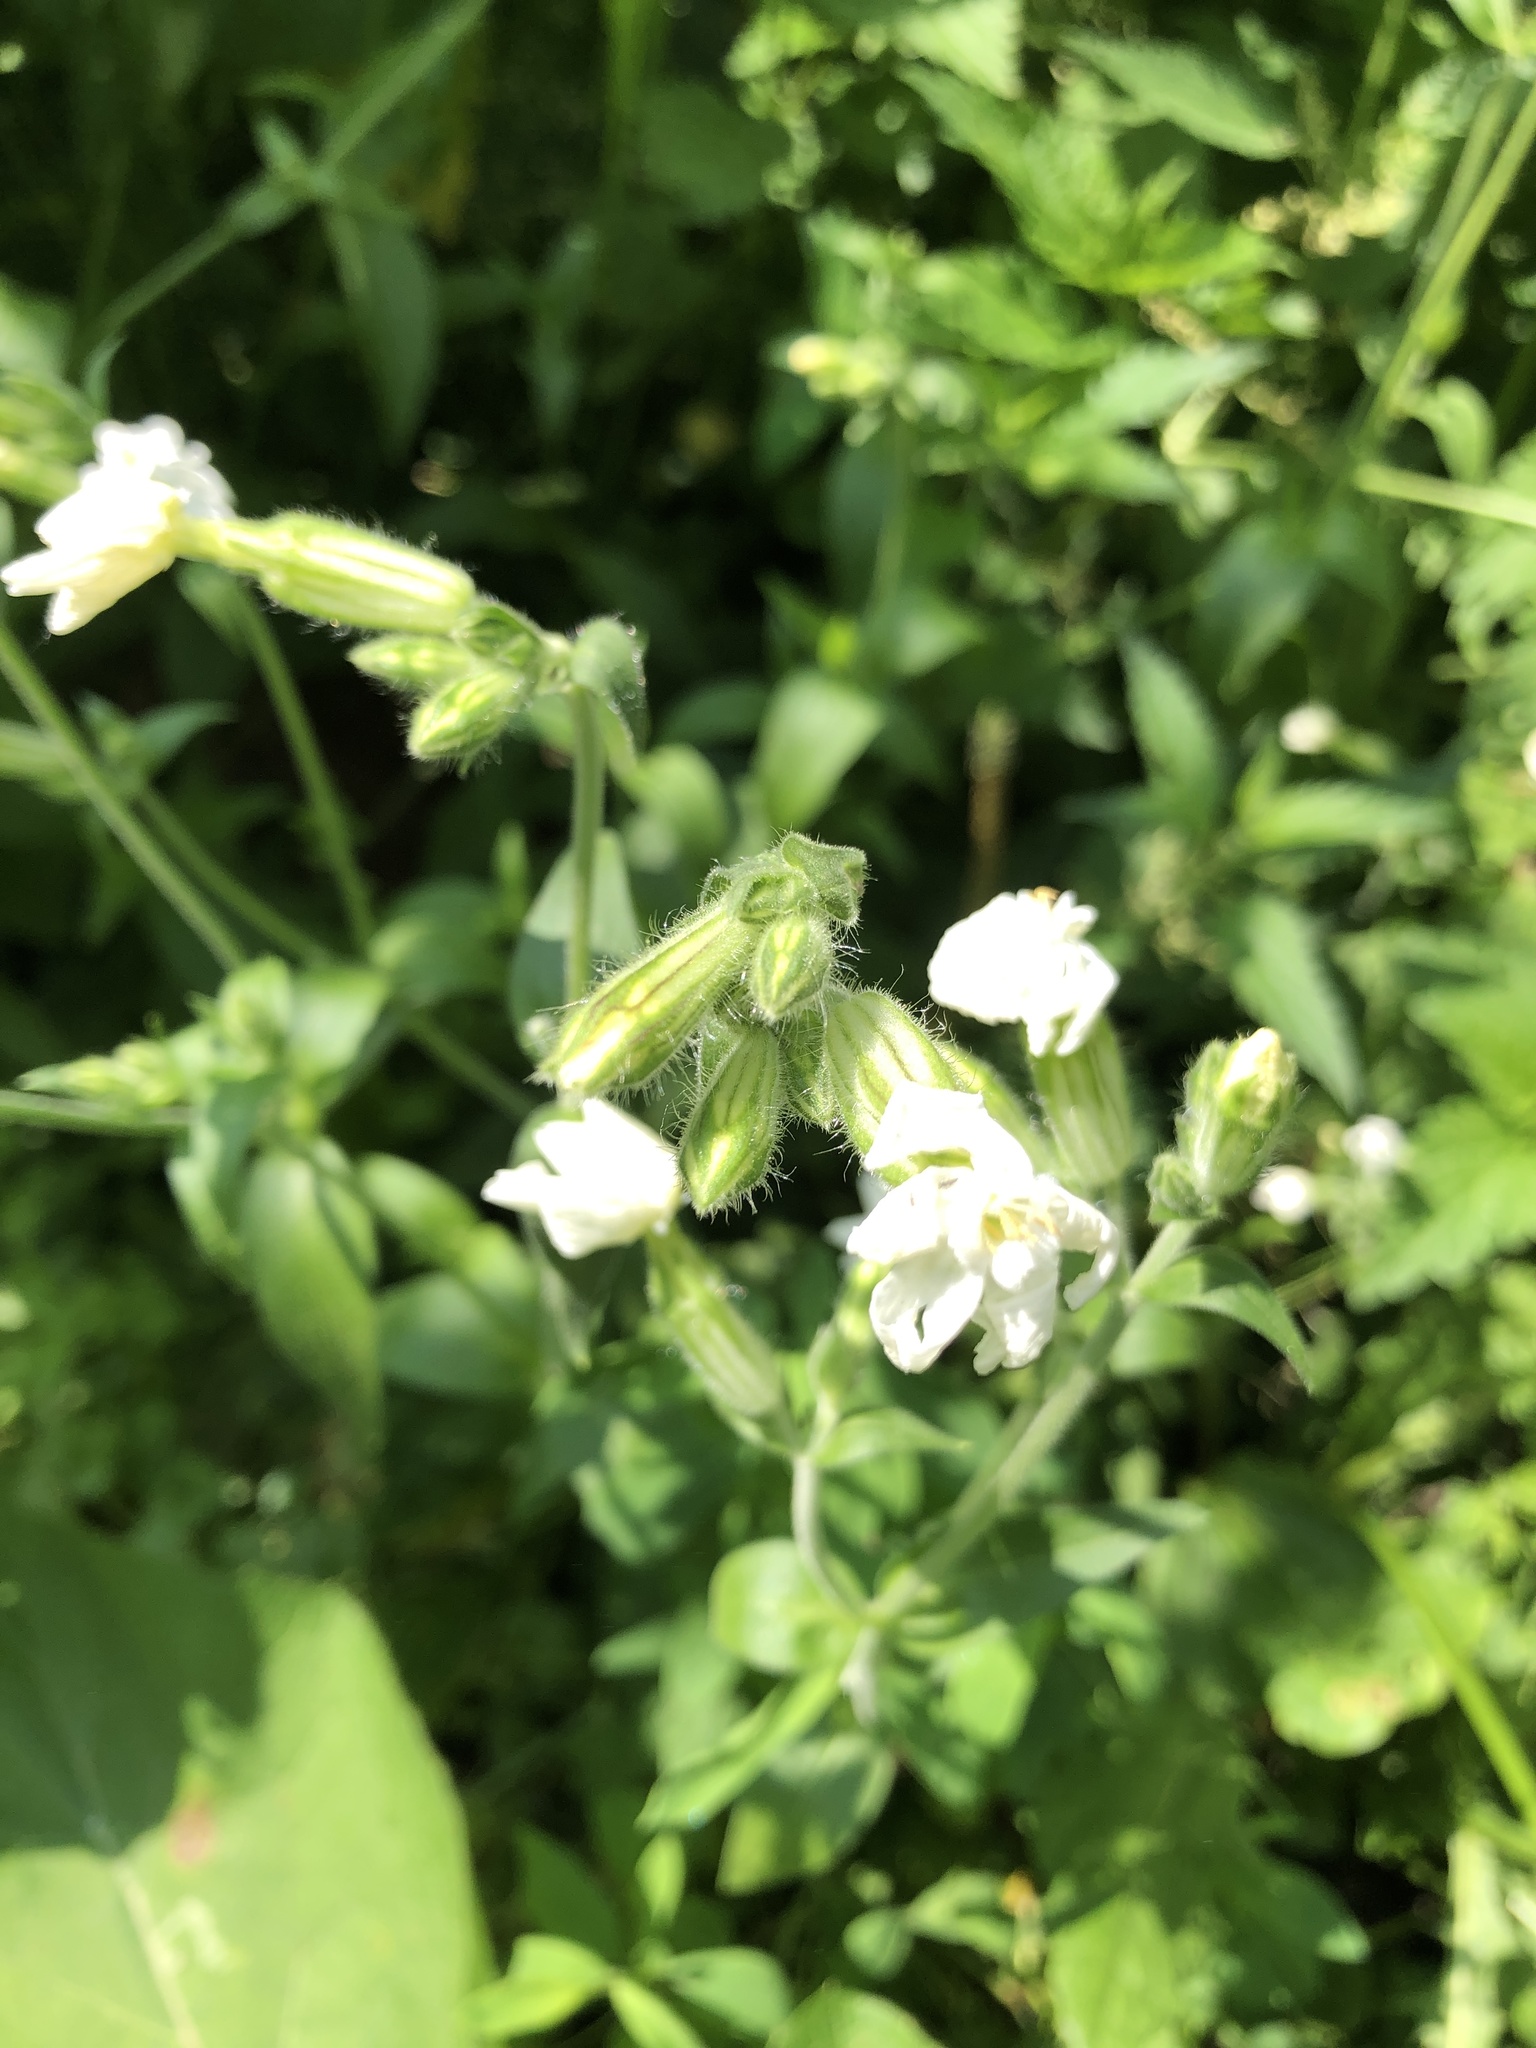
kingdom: Plantae
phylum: Tracheophyta
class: Magnoliopsida
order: Caryophyllales
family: Caryophyllaceae
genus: Silene
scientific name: Silene latifolia
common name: White campion
